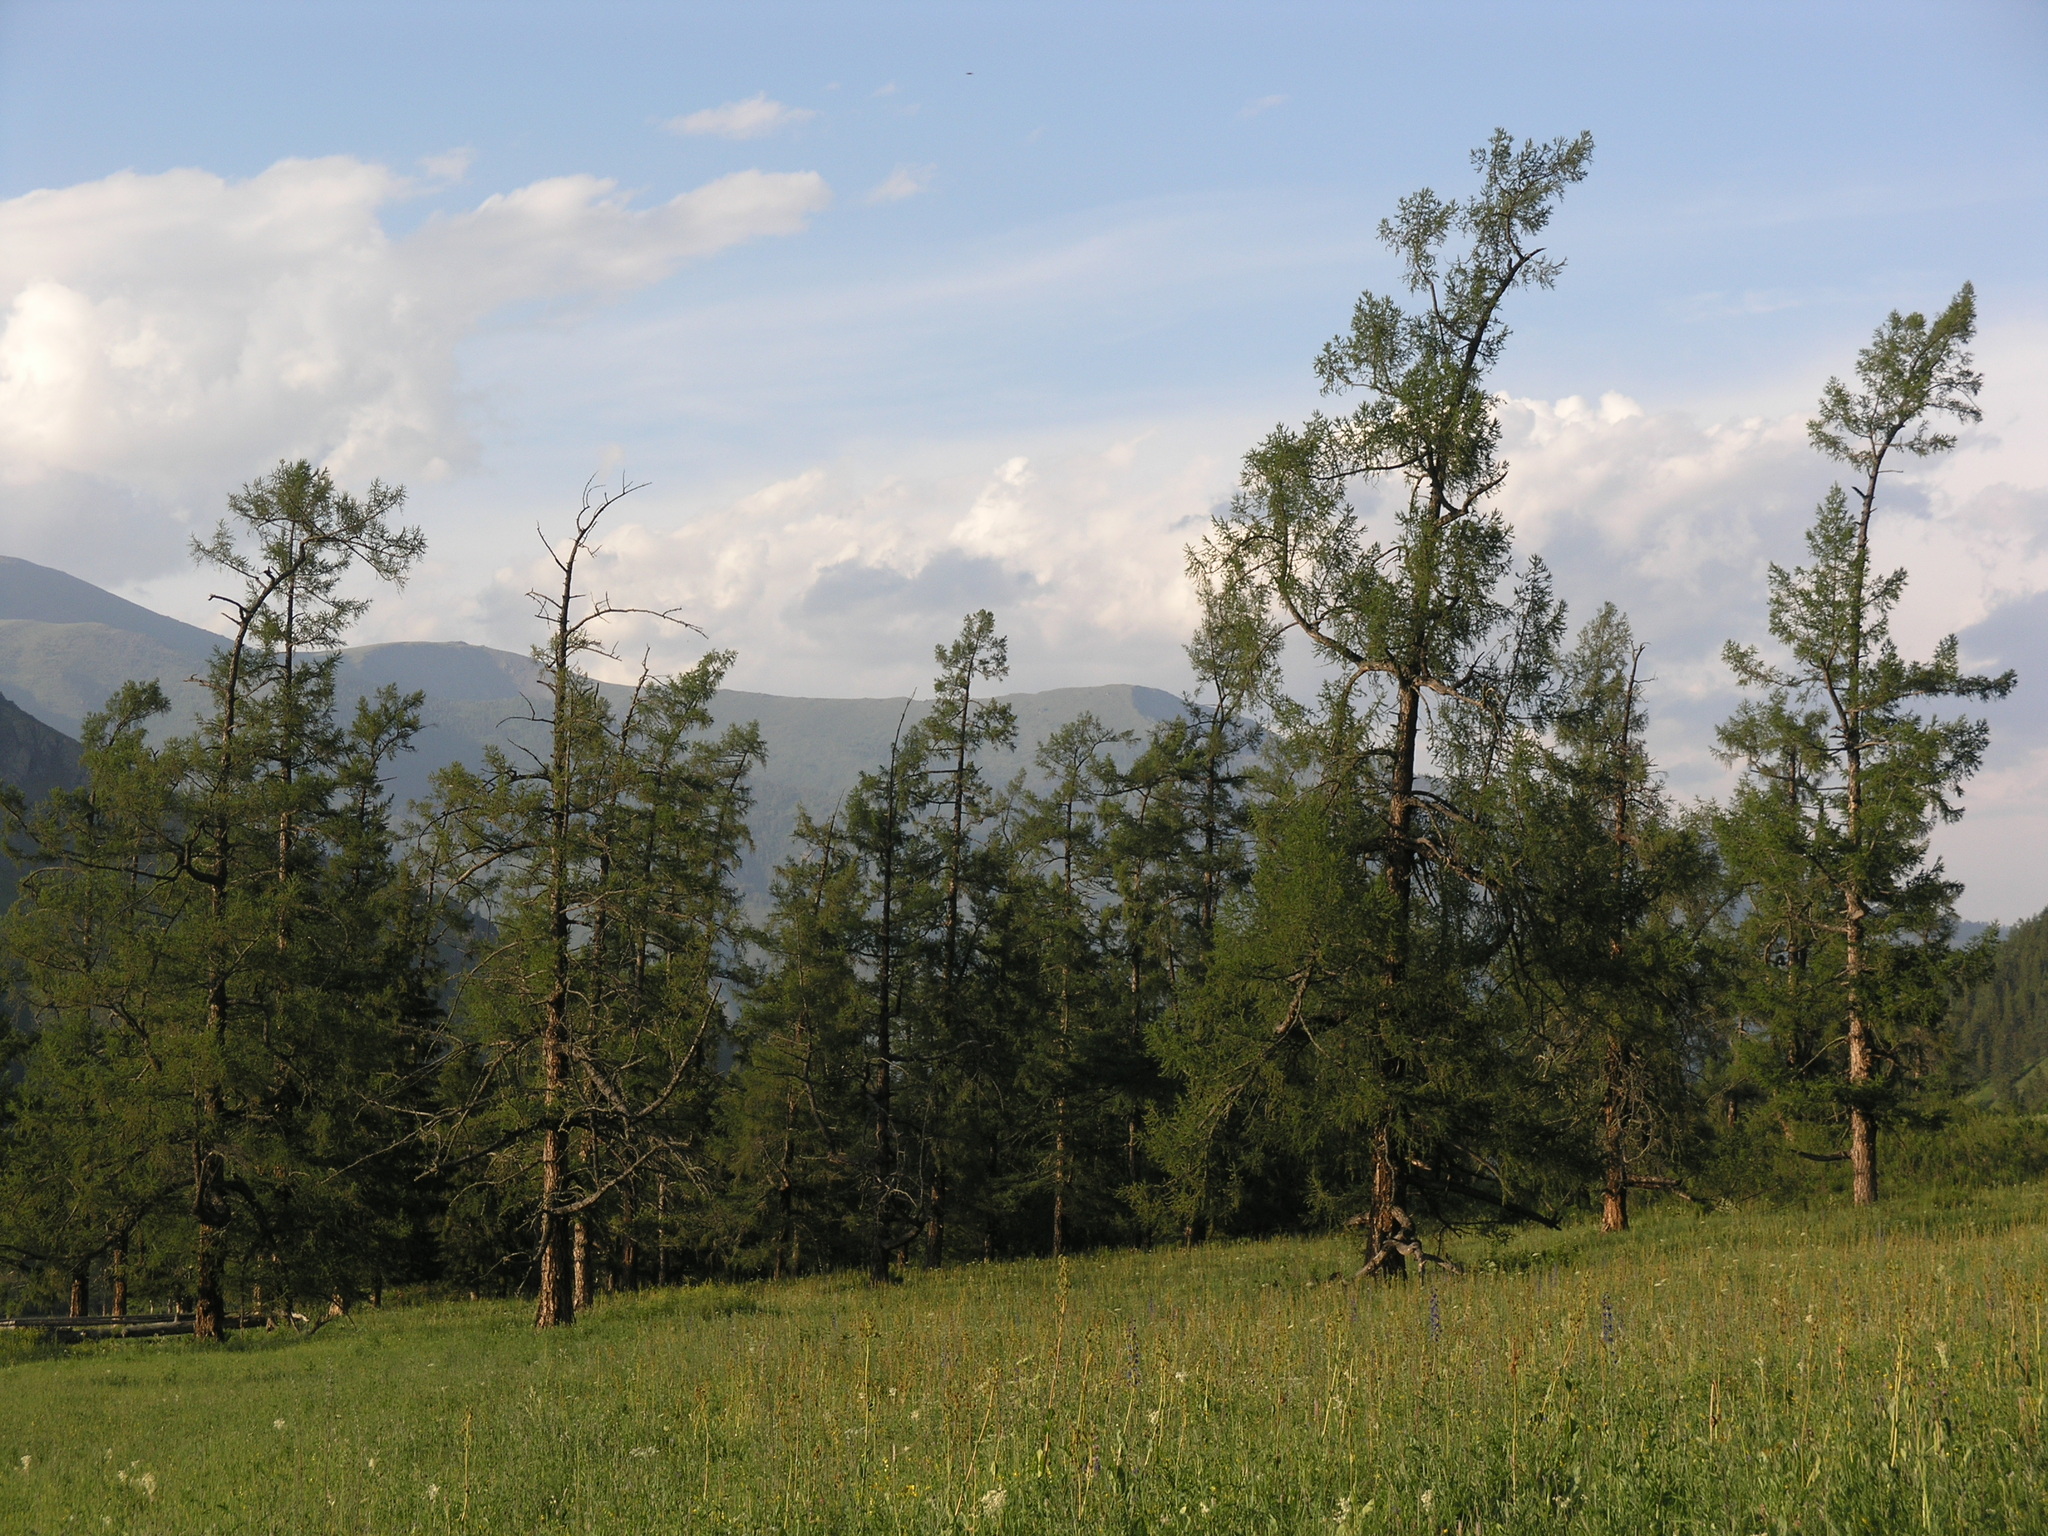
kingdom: Plantae
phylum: Tracheophyta
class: Pinopsida
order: Pinales
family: Pinaceae
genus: Larix
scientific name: Larix sibirica
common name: Siberian larch
